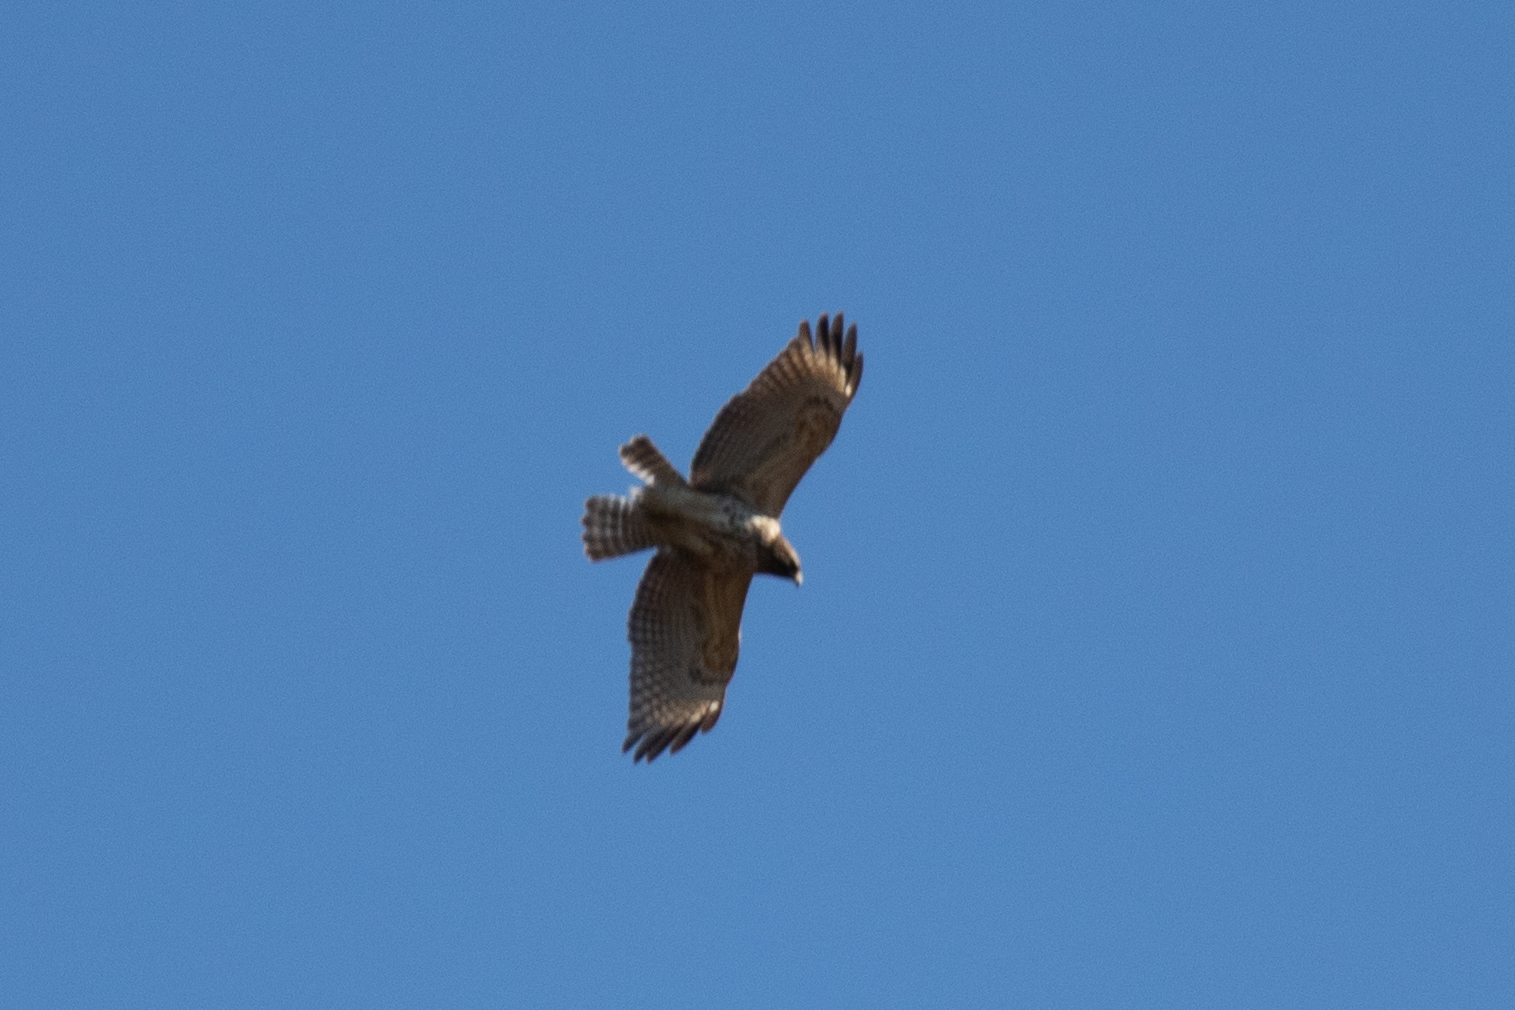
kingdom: Animalia
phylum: Chordata
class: Aves
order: Accipitriformes
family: Accipitridae
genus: Buteo
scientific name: Buteo lineatus
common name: Red-shouldered hawk
